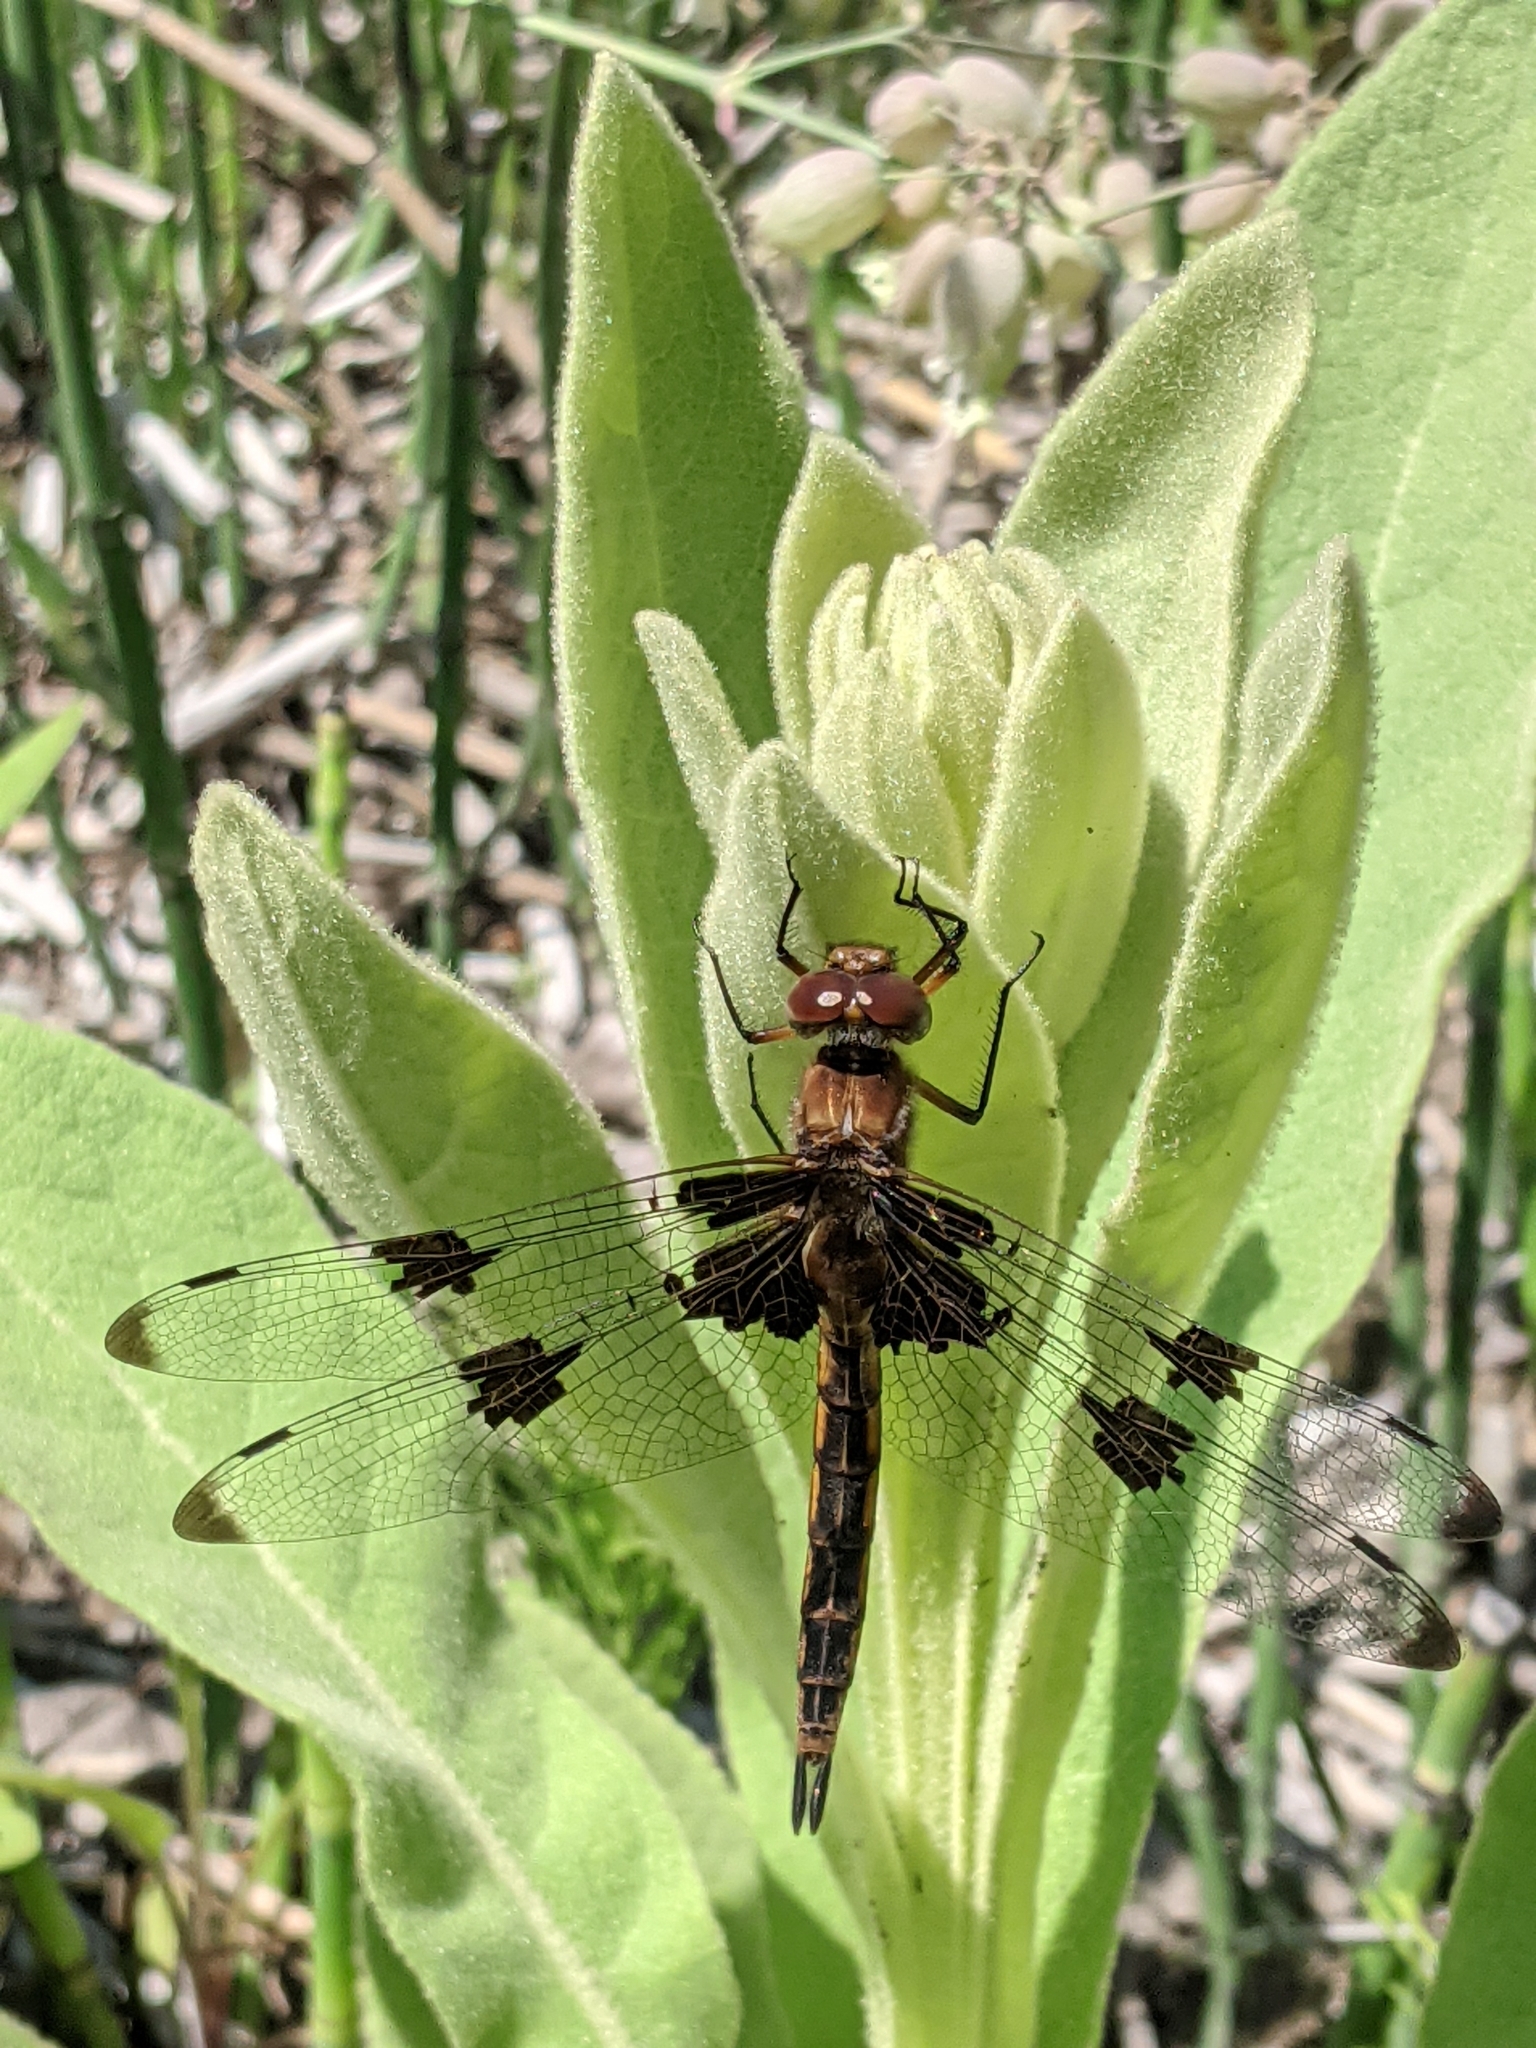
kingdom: Animalia
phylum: Arthropoda
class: Insecta
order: Odonata
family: Corduliidae
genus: Epitheca
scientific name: Epitheca princeps
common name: Prince baskettail
